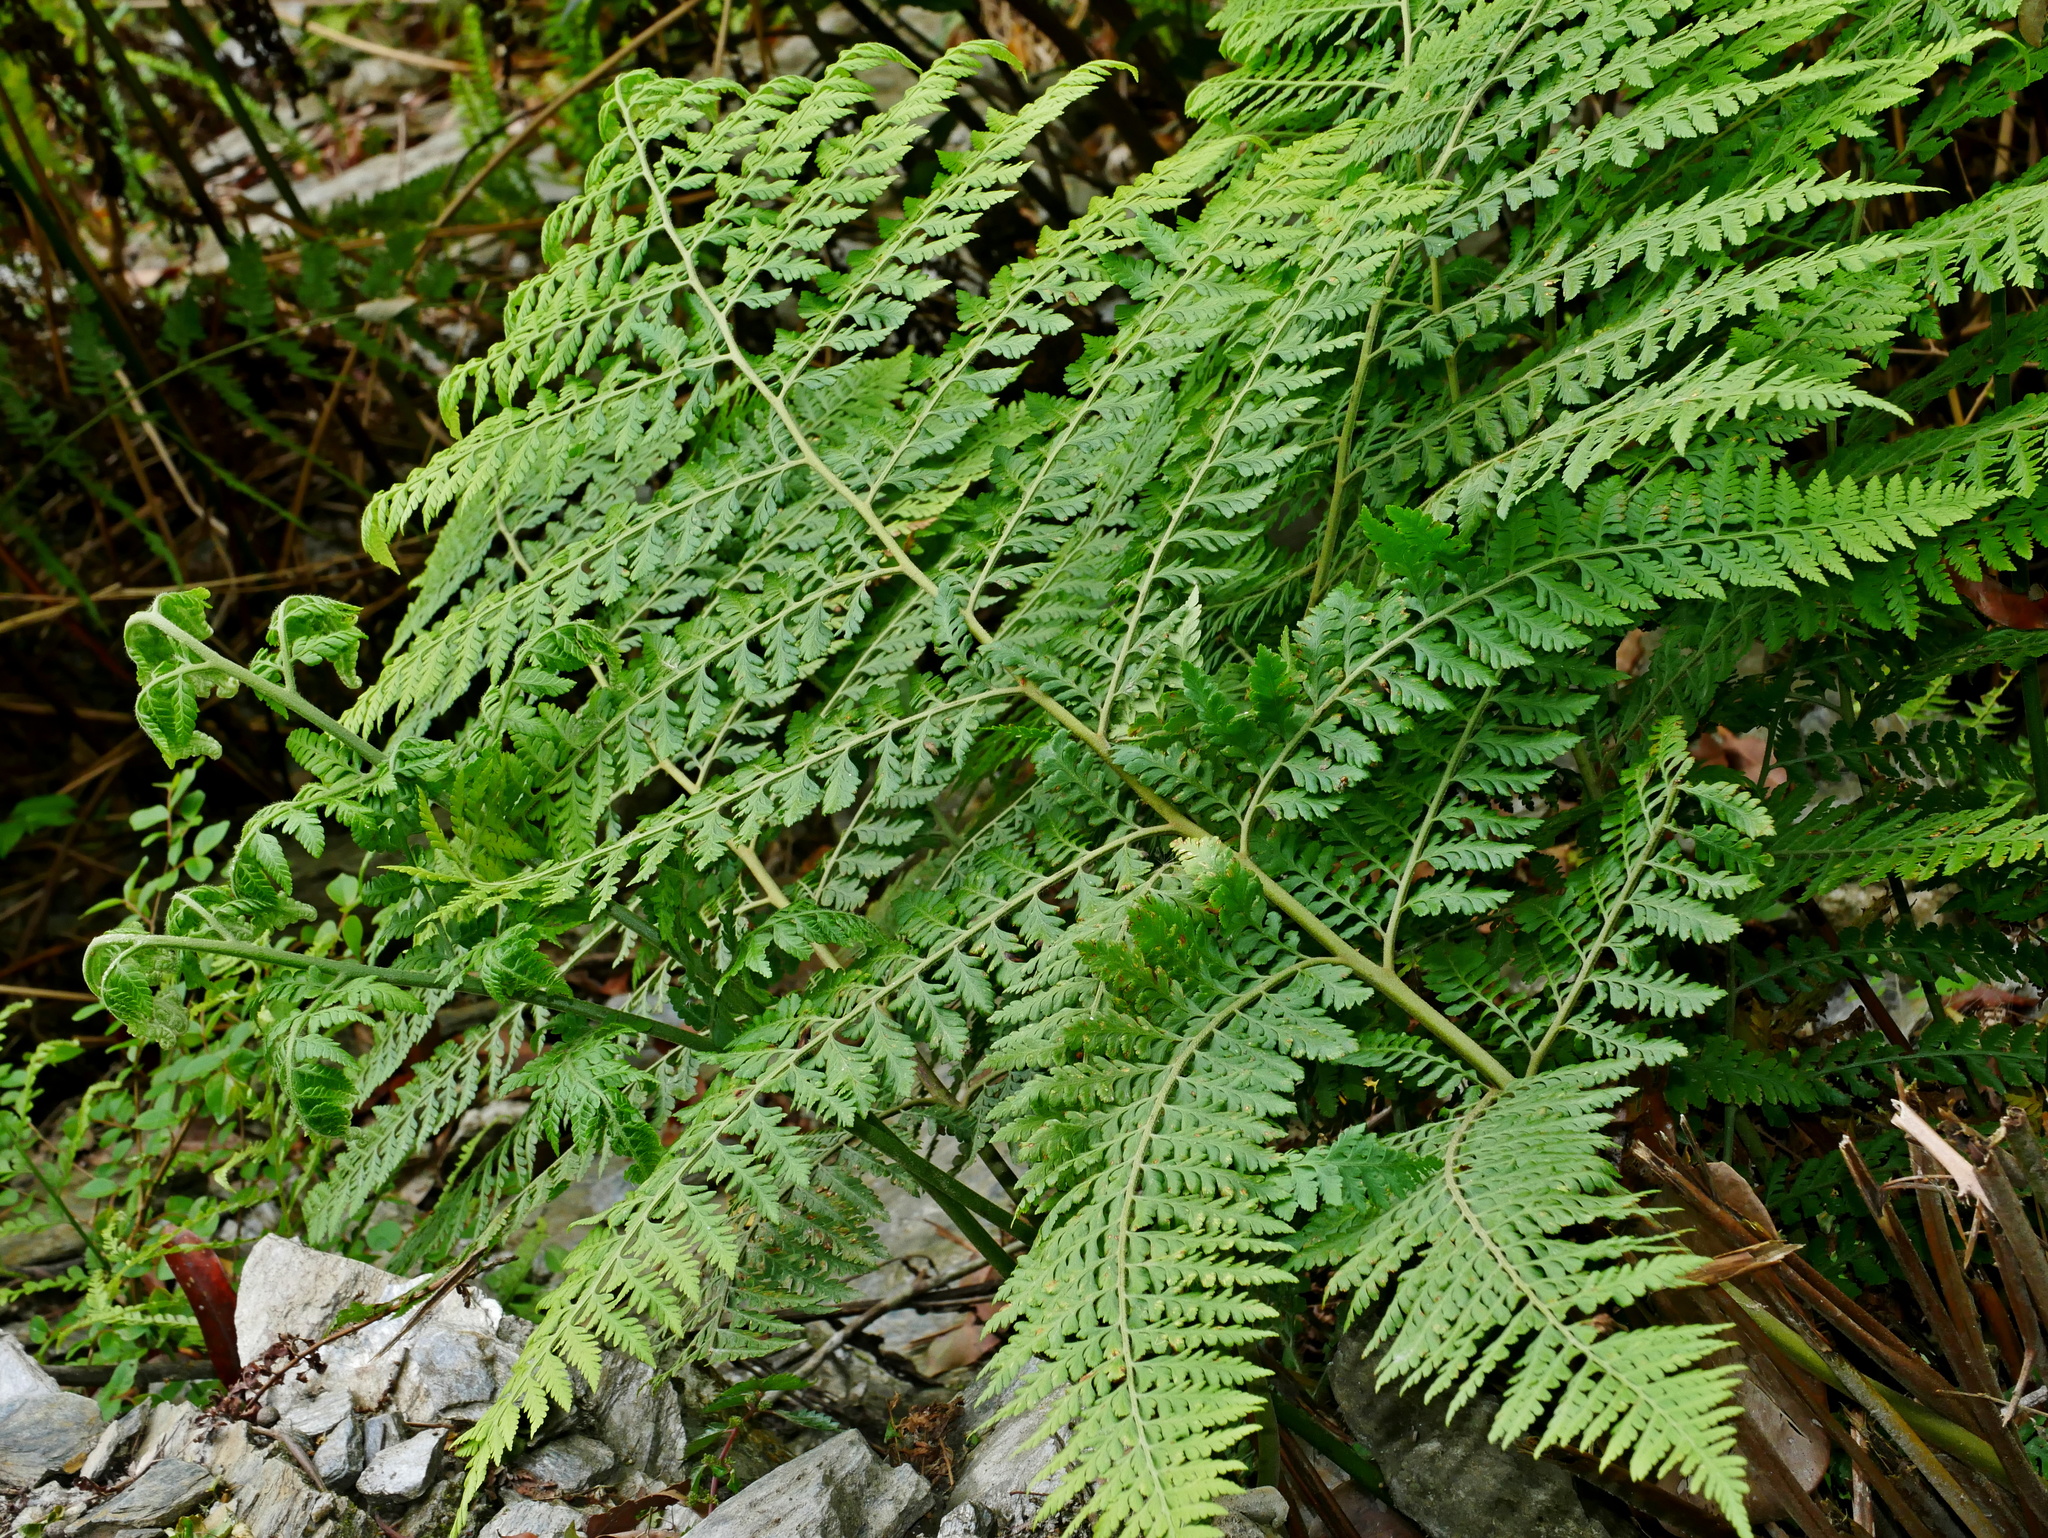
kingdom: Plantae
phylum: Tracheophyta
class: Polypodiopsida
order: Polypodiales
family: Dennstaedtiaceae
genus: Microlepia
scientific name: Microlepia smithii
